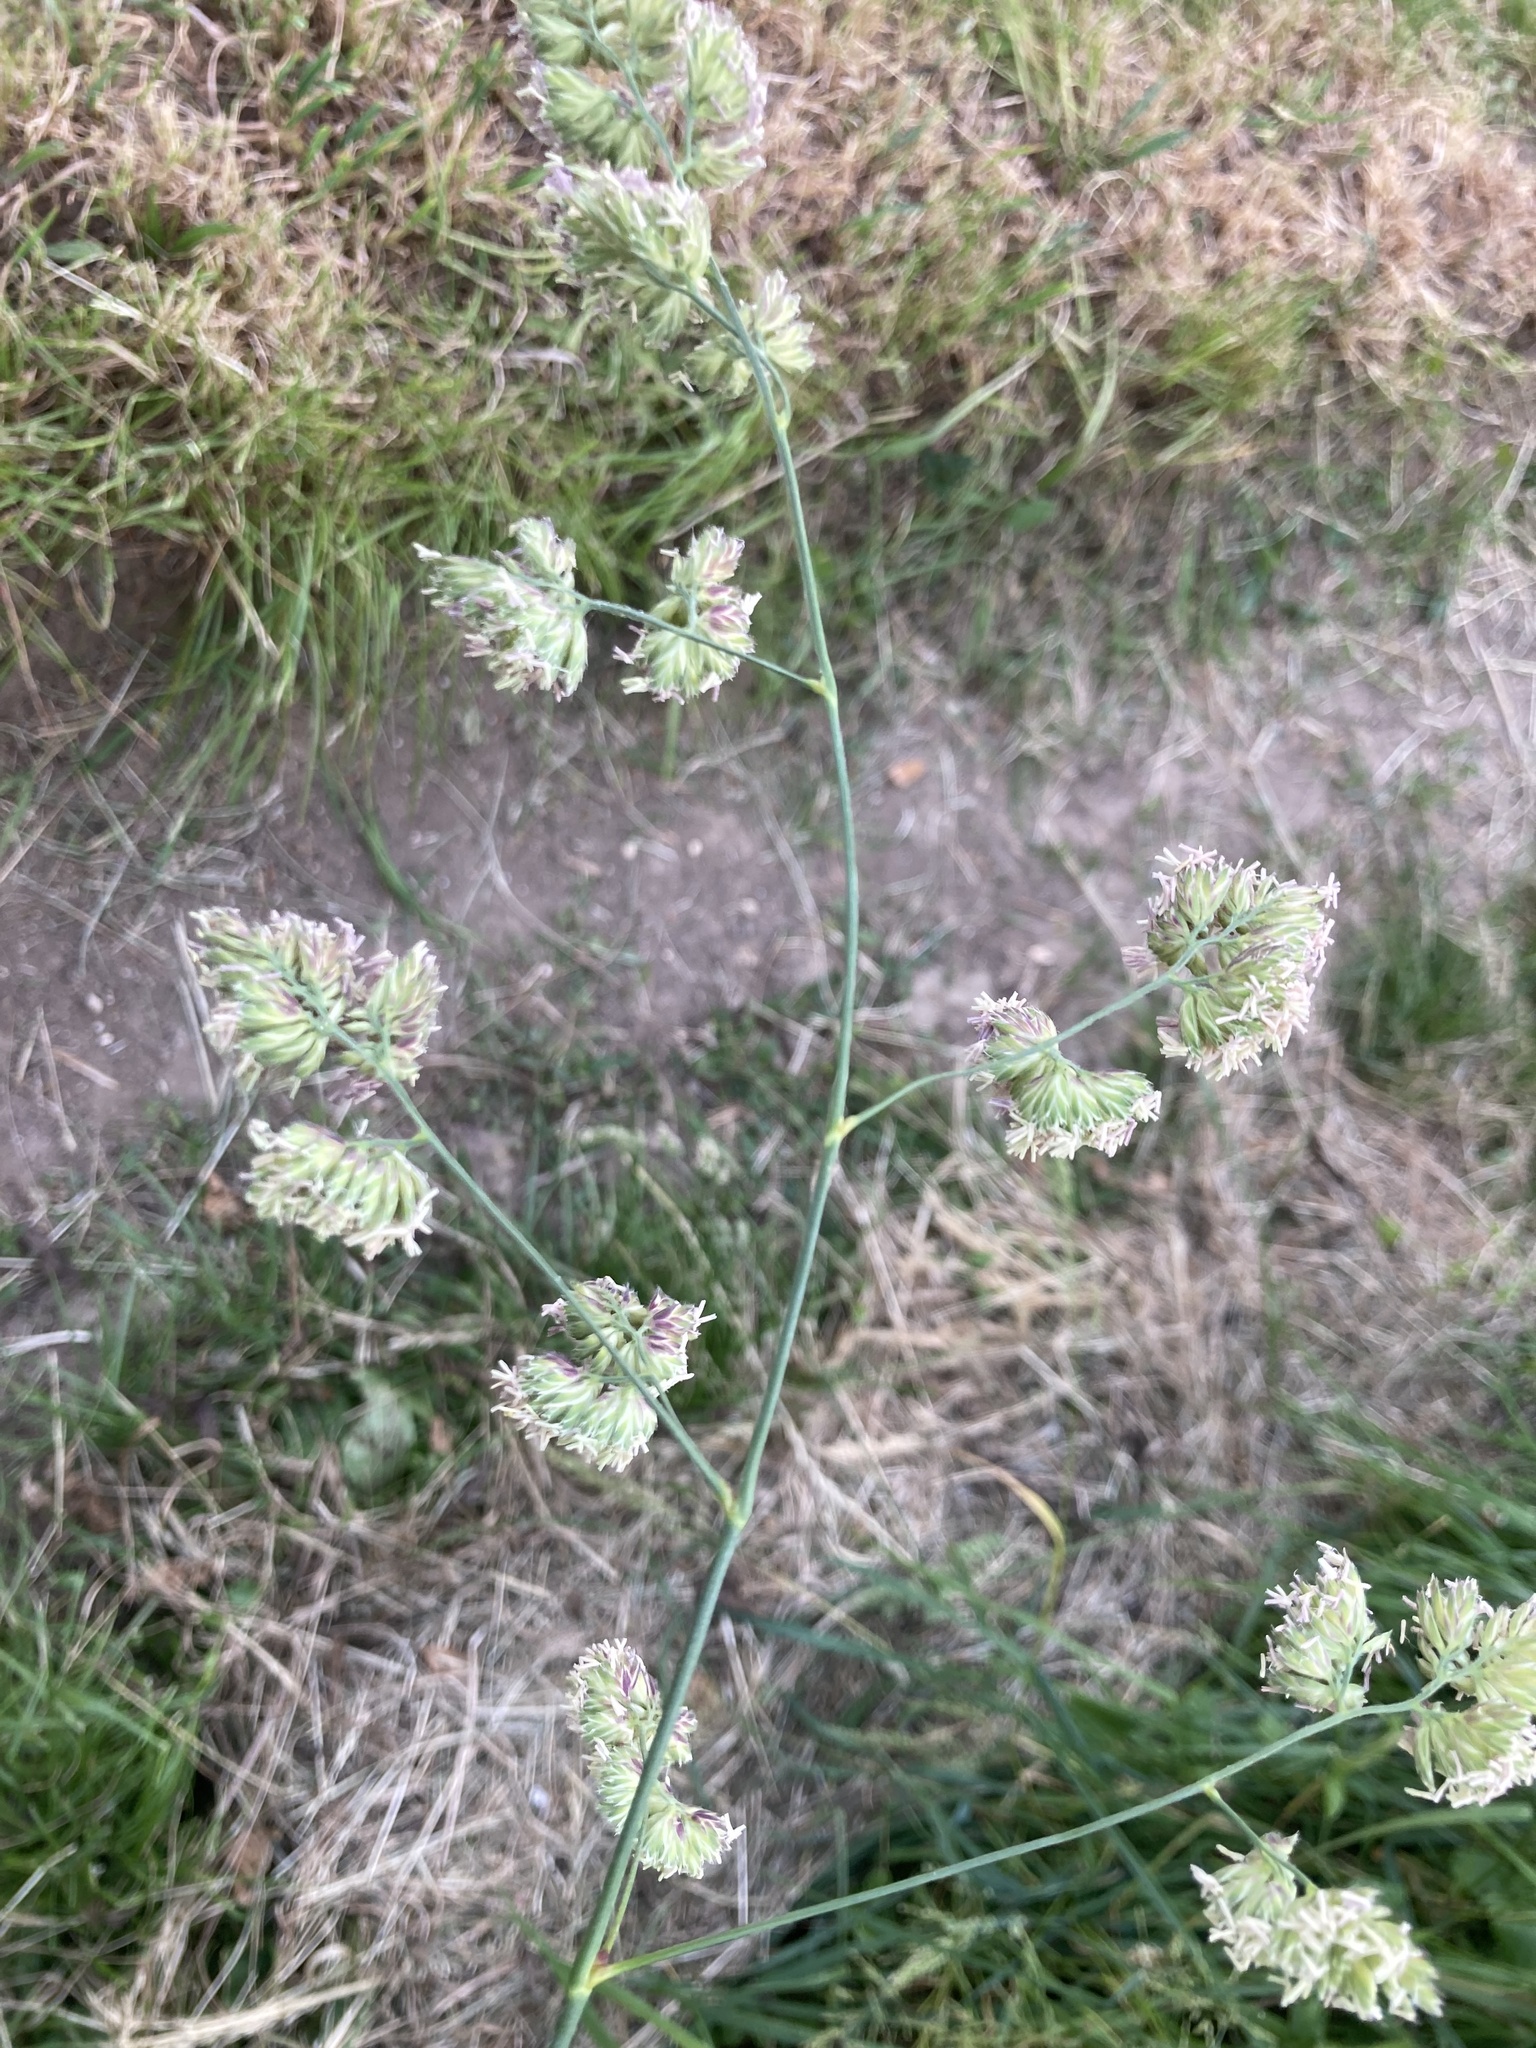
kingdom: Plantae
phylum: Tracheophyta
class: Liliopsida
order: Poales
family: Poaceae
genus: Dactylis
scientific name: Dactylis glomerata
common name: Orchardgrass
